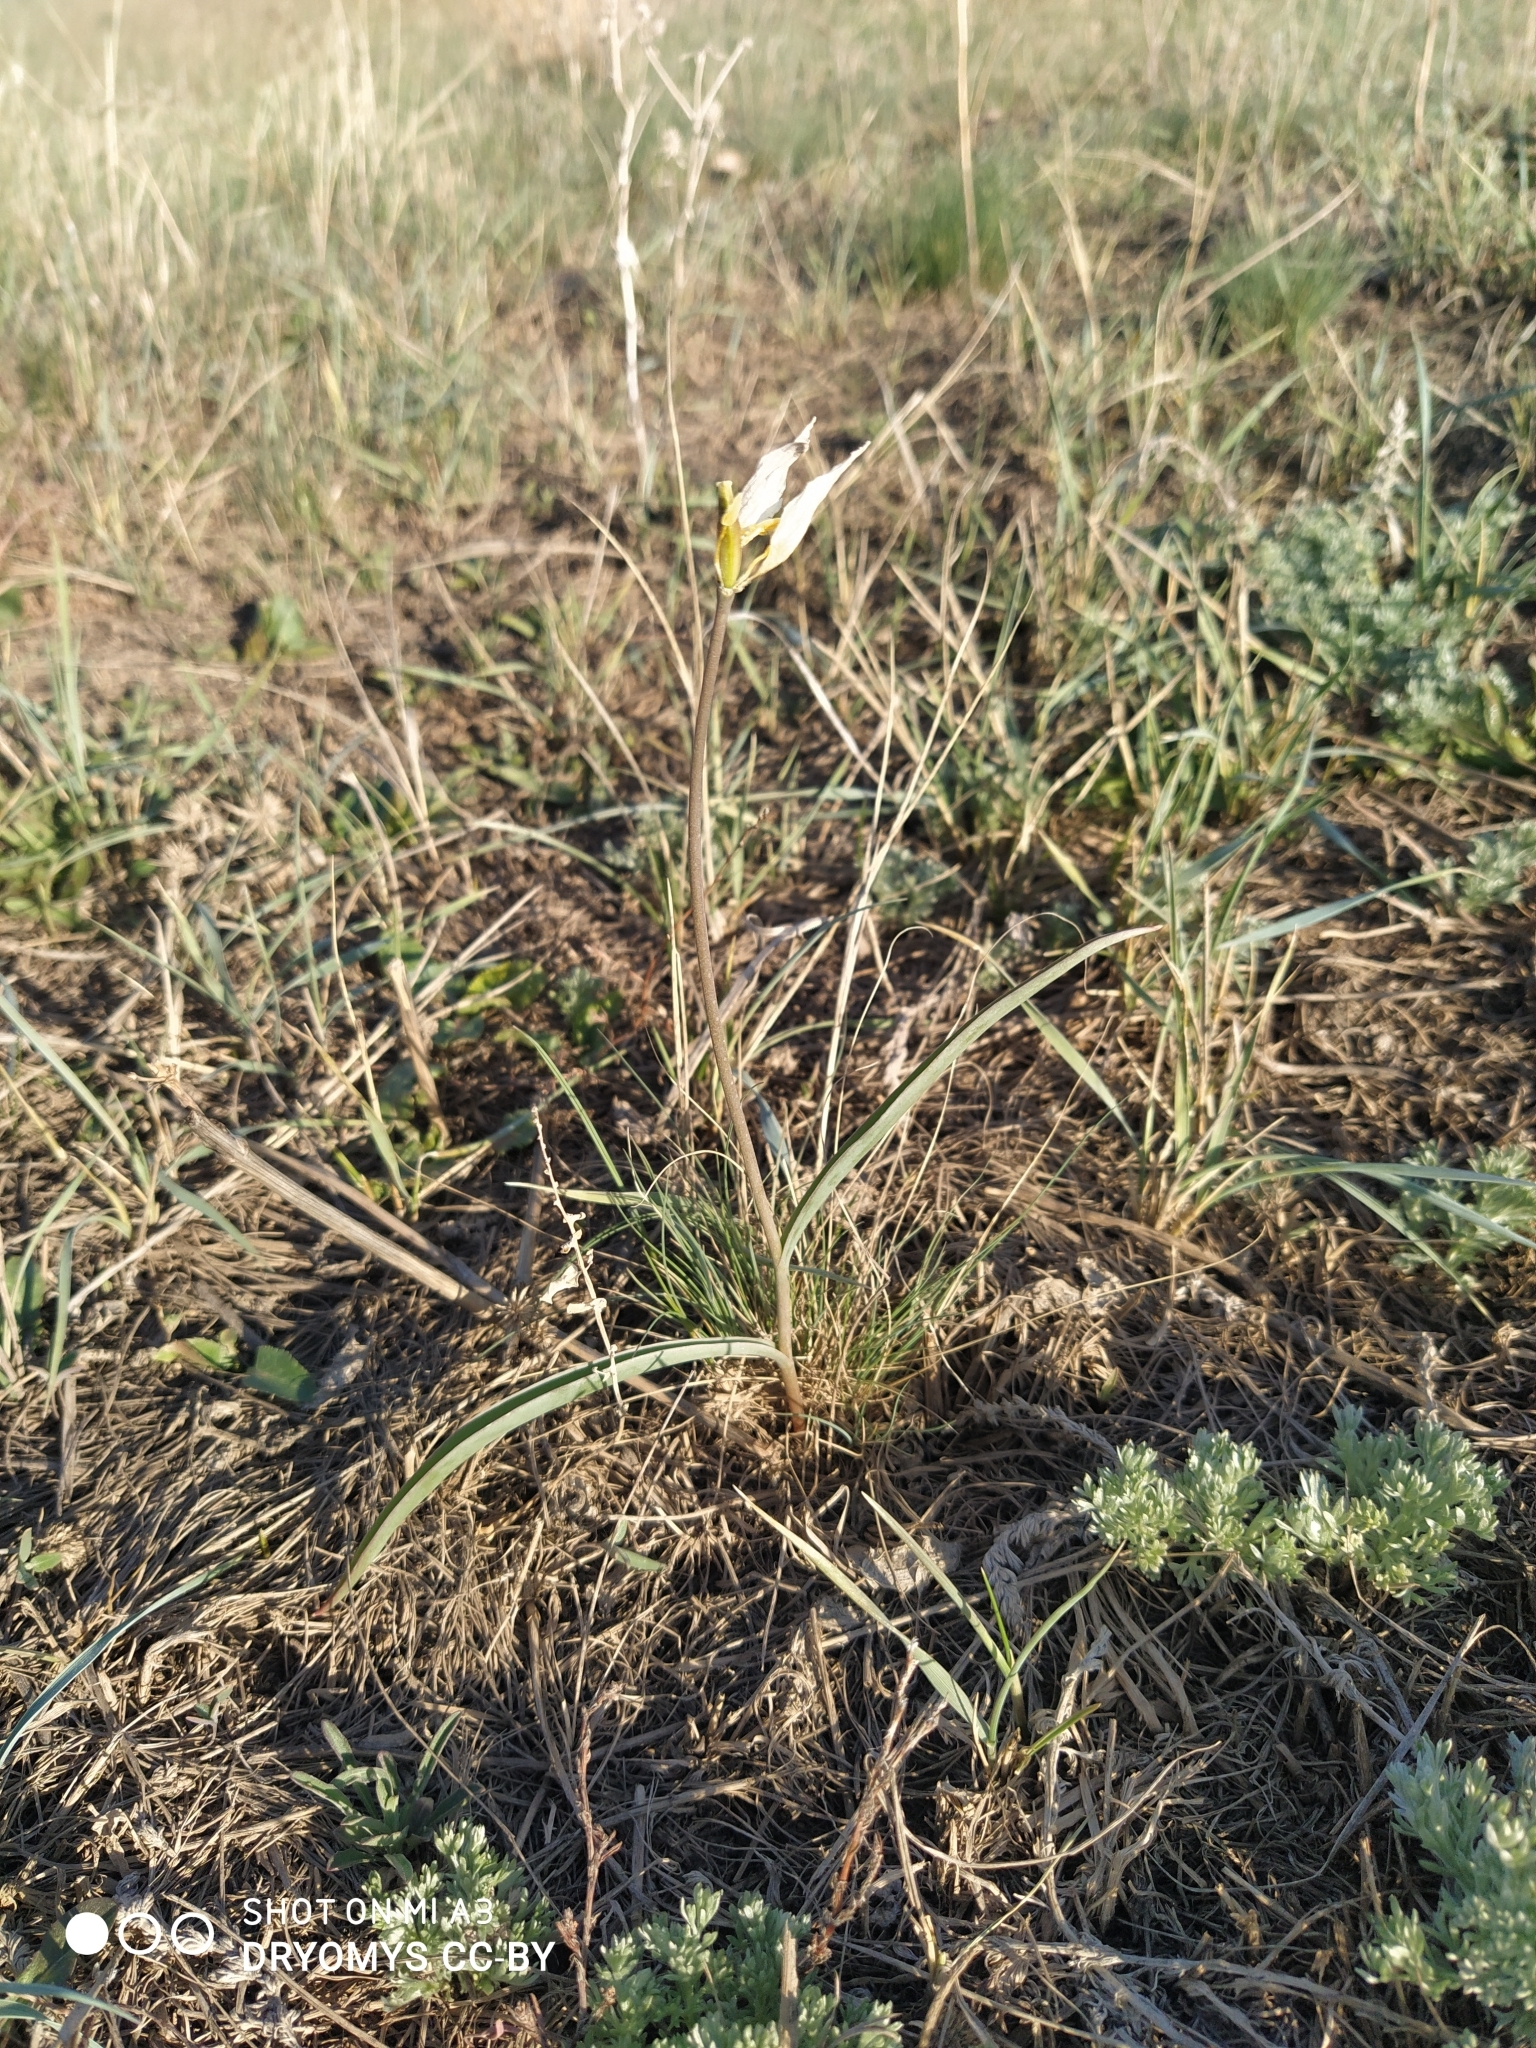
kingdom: Plantae
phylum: Tracheophyta
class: Liliopsida
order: Liliales
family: Liliaceae
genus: Tulipa
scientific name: Tulipa patens
